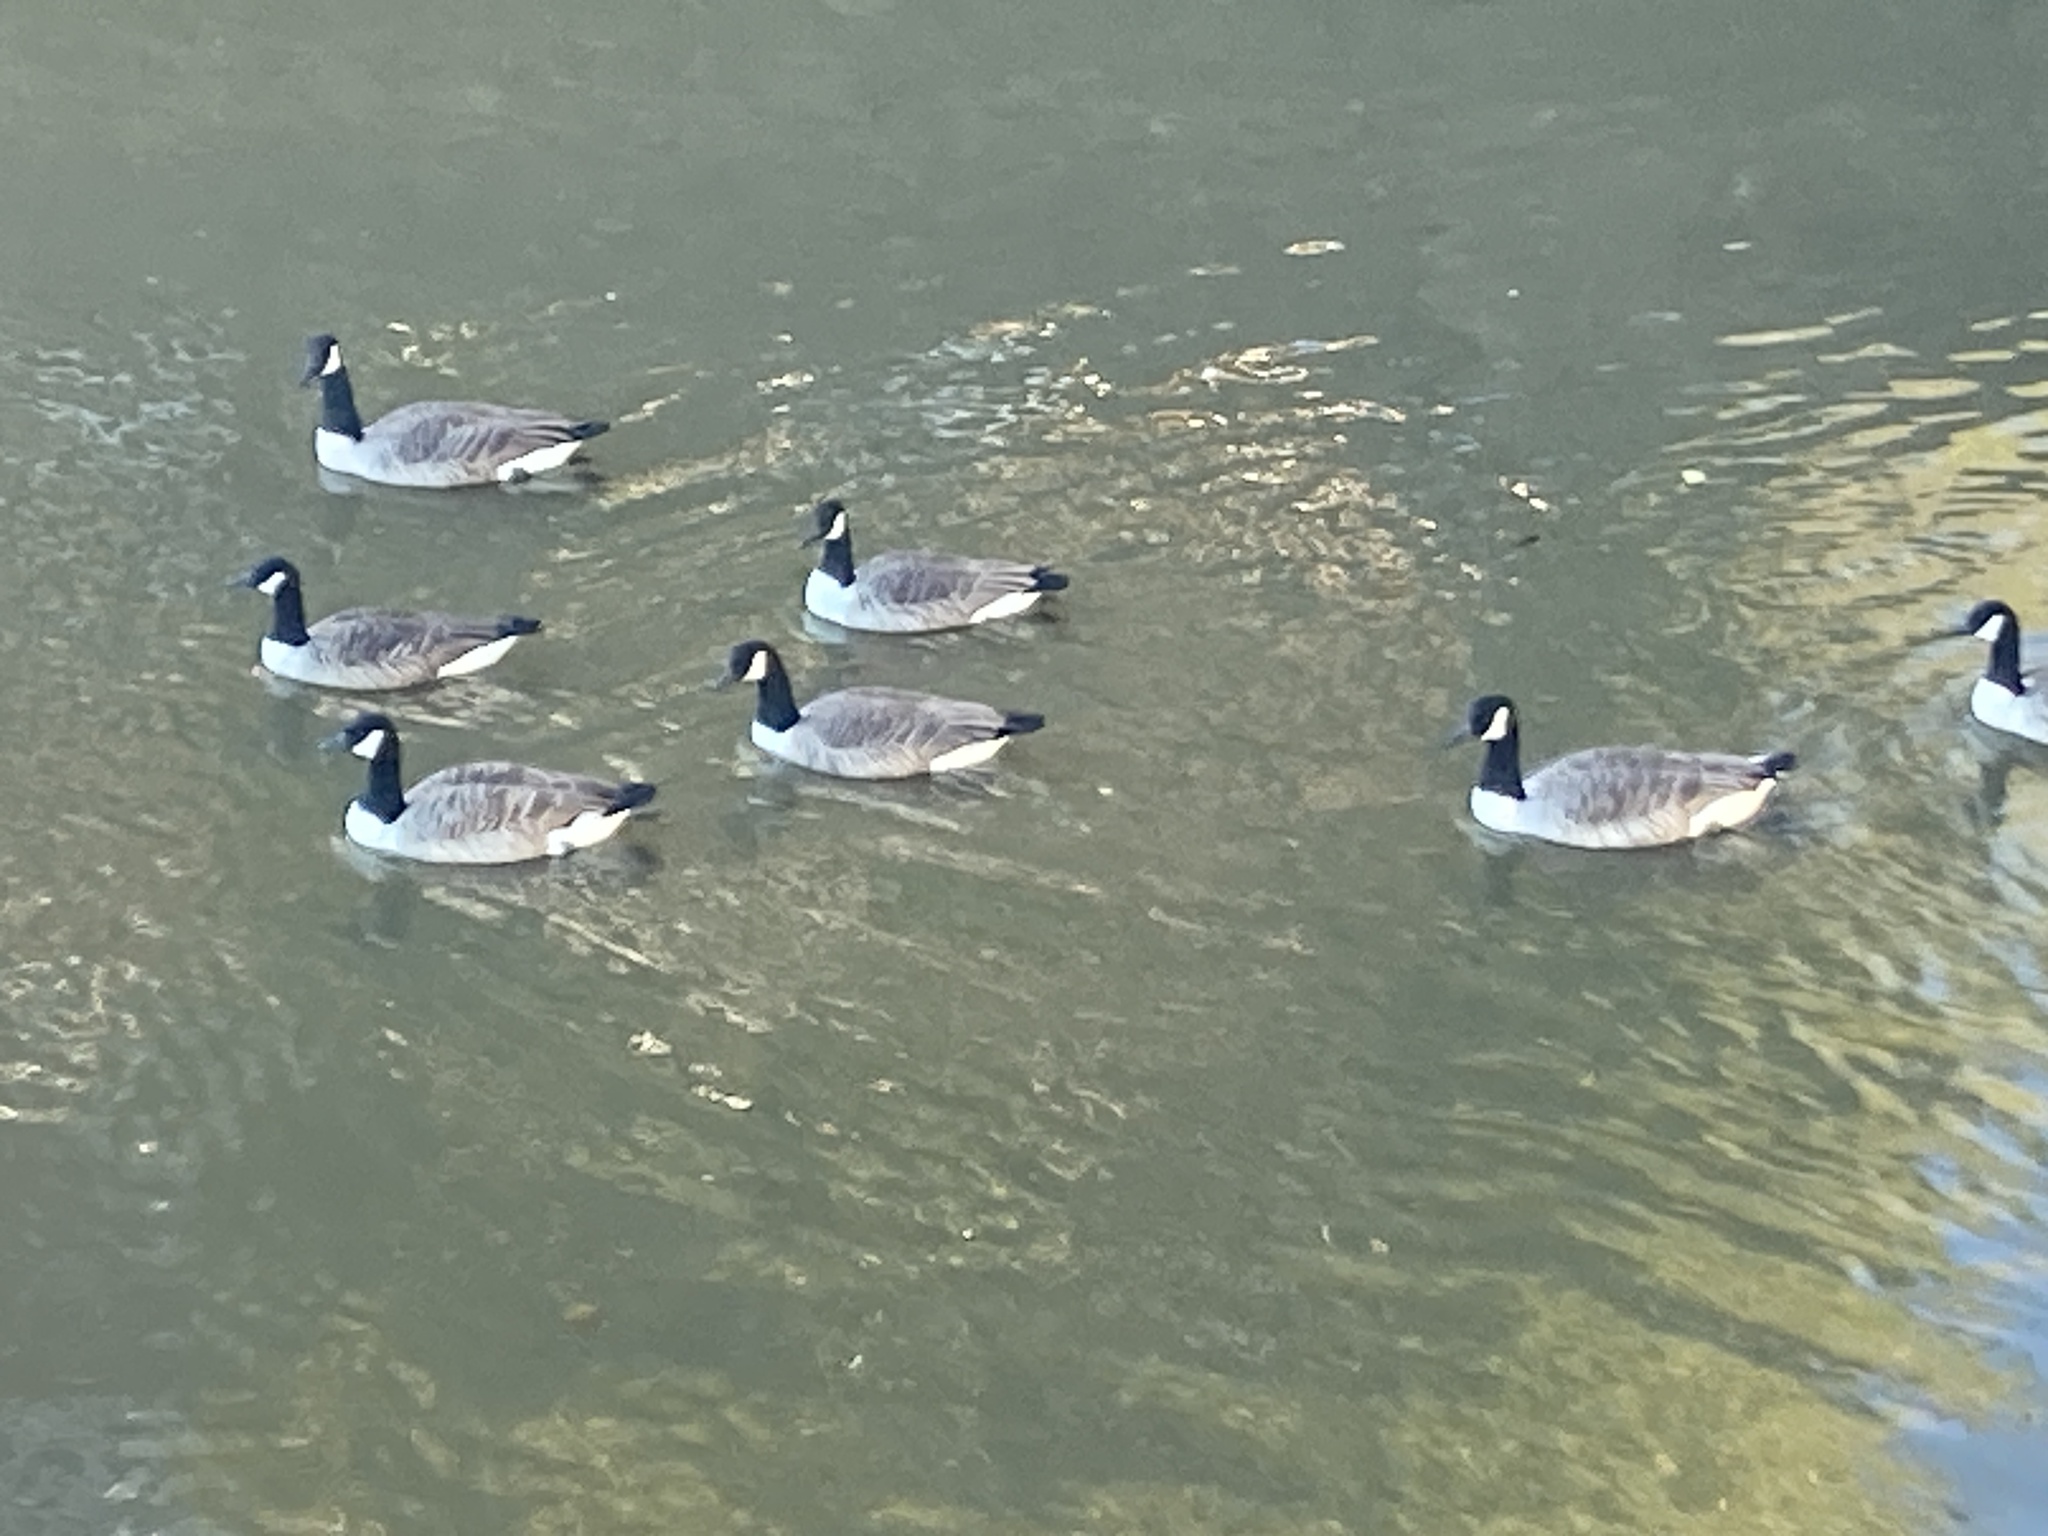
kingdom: Animalia
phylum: Chordata
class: Aves
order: Anseriformes
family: Anatidae
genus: Branta
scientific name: Branta canadensis
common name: Canada goose
